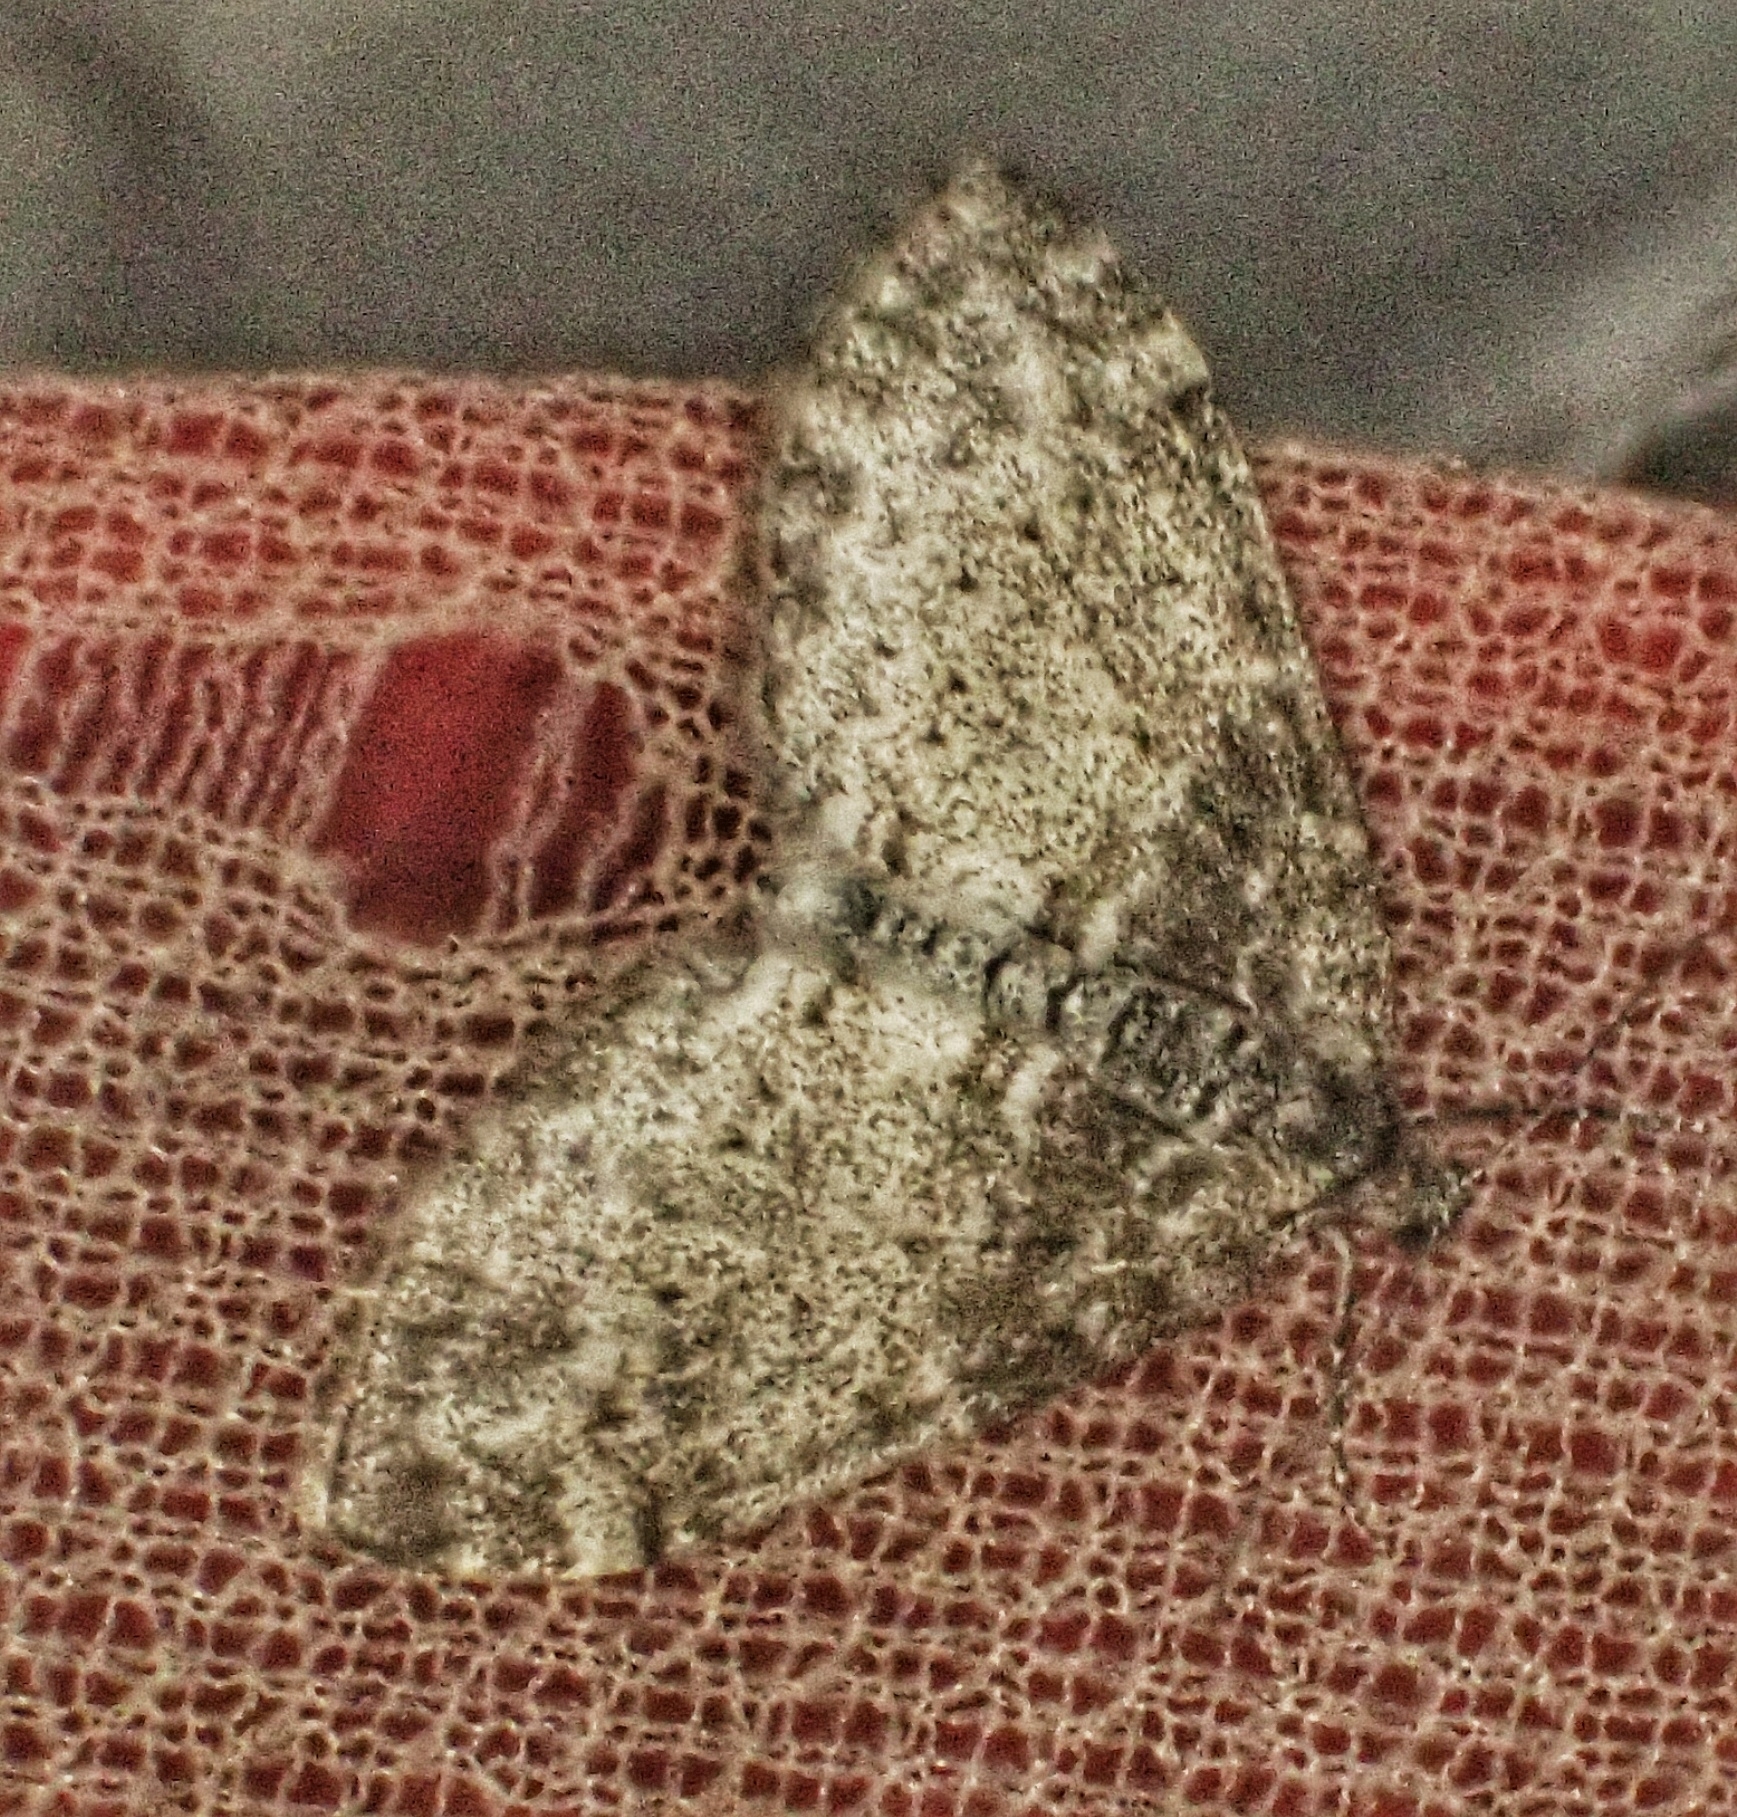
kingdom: Animalia
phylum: Arthropoda
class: Insecta
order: Lepidoptera
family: Geometridae
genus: Lobophora
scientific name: Lobophora halterata
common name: Seraphim
